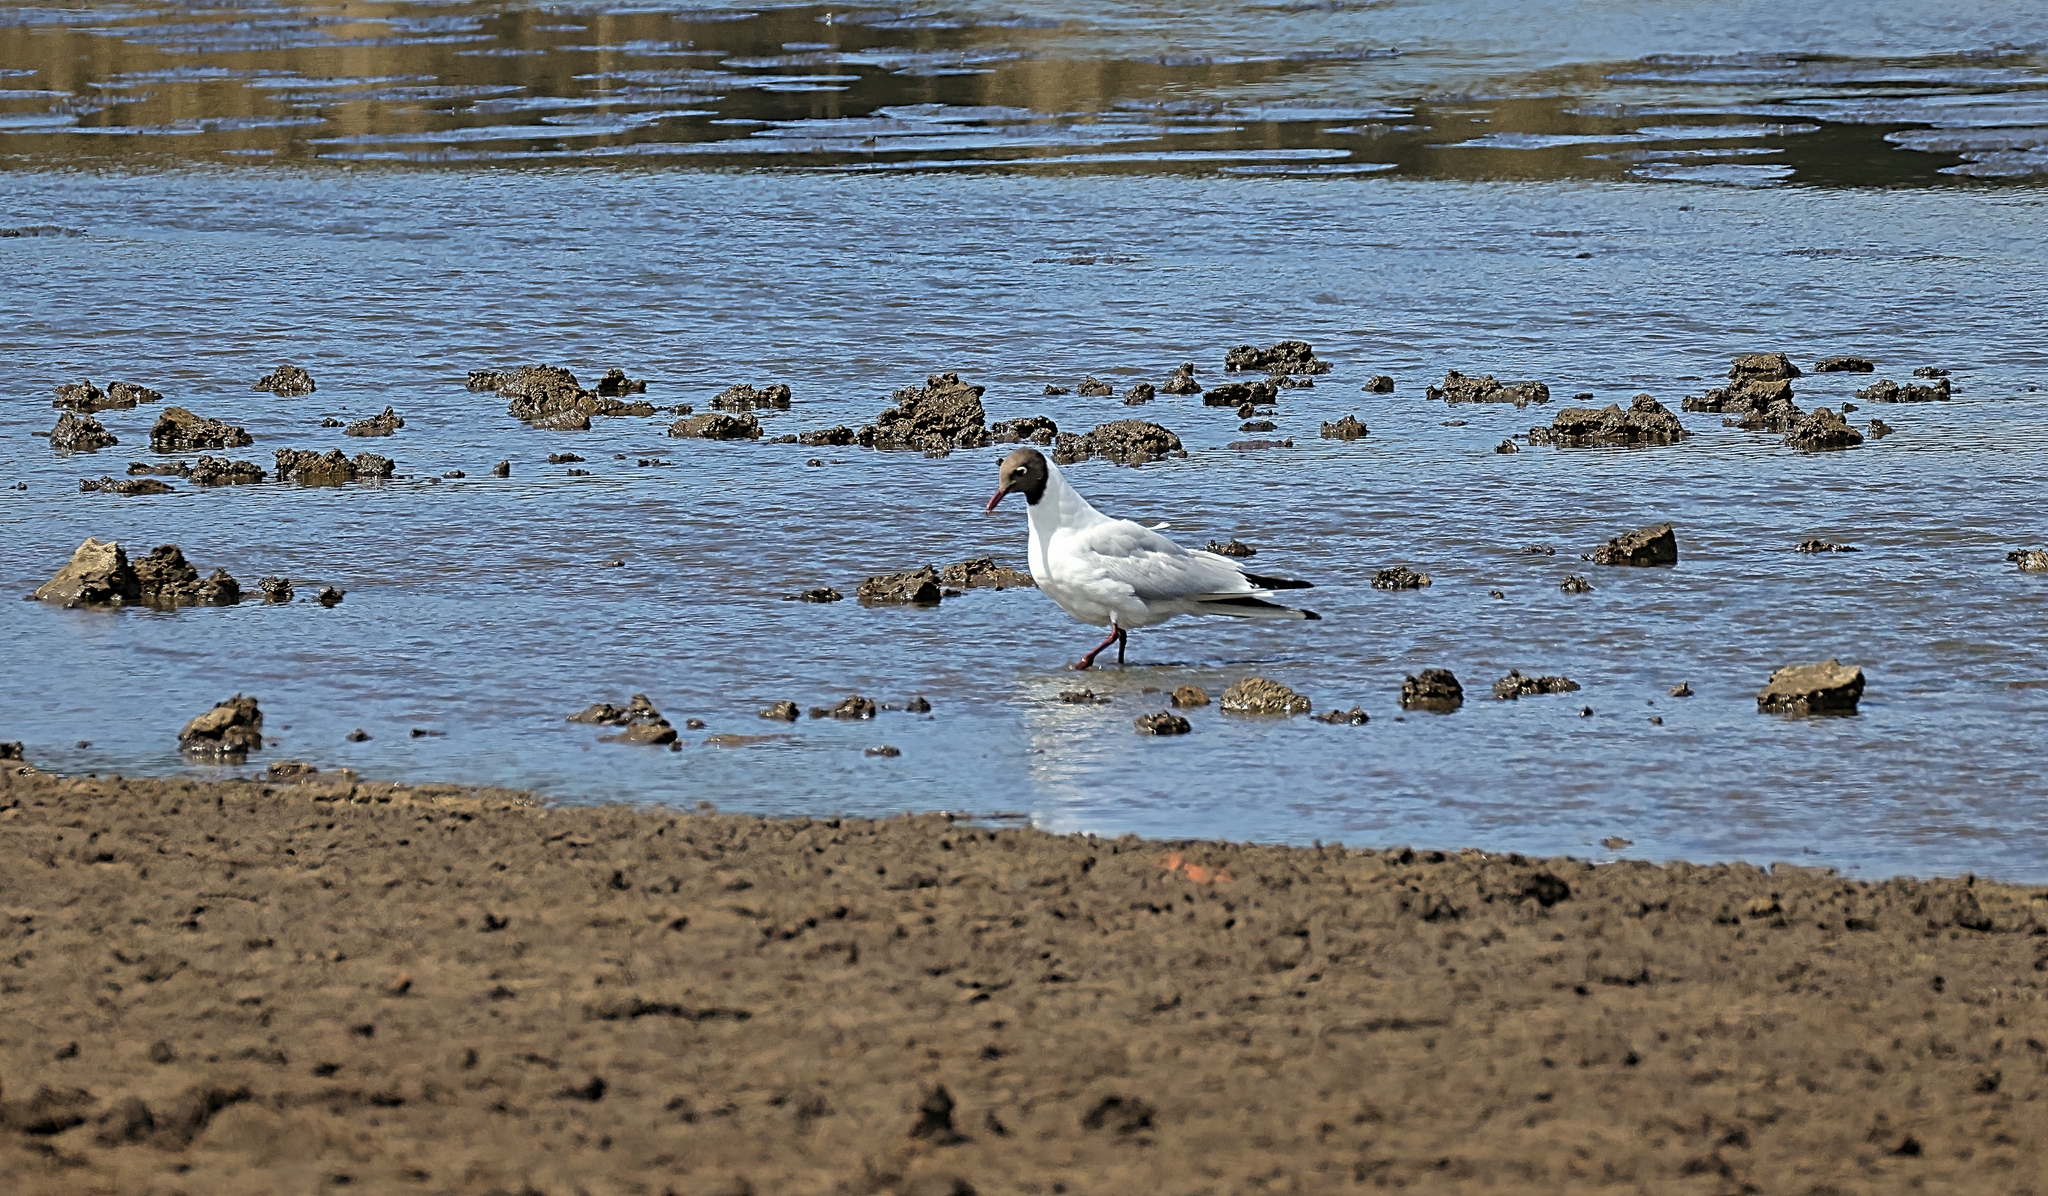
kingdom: Animalia
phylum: Chordata
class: Aves
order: Charadriiformes
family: Laridae
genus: Chroicocephalus
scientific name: Chroicocephalus ridibundus
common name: Black-headed gull
